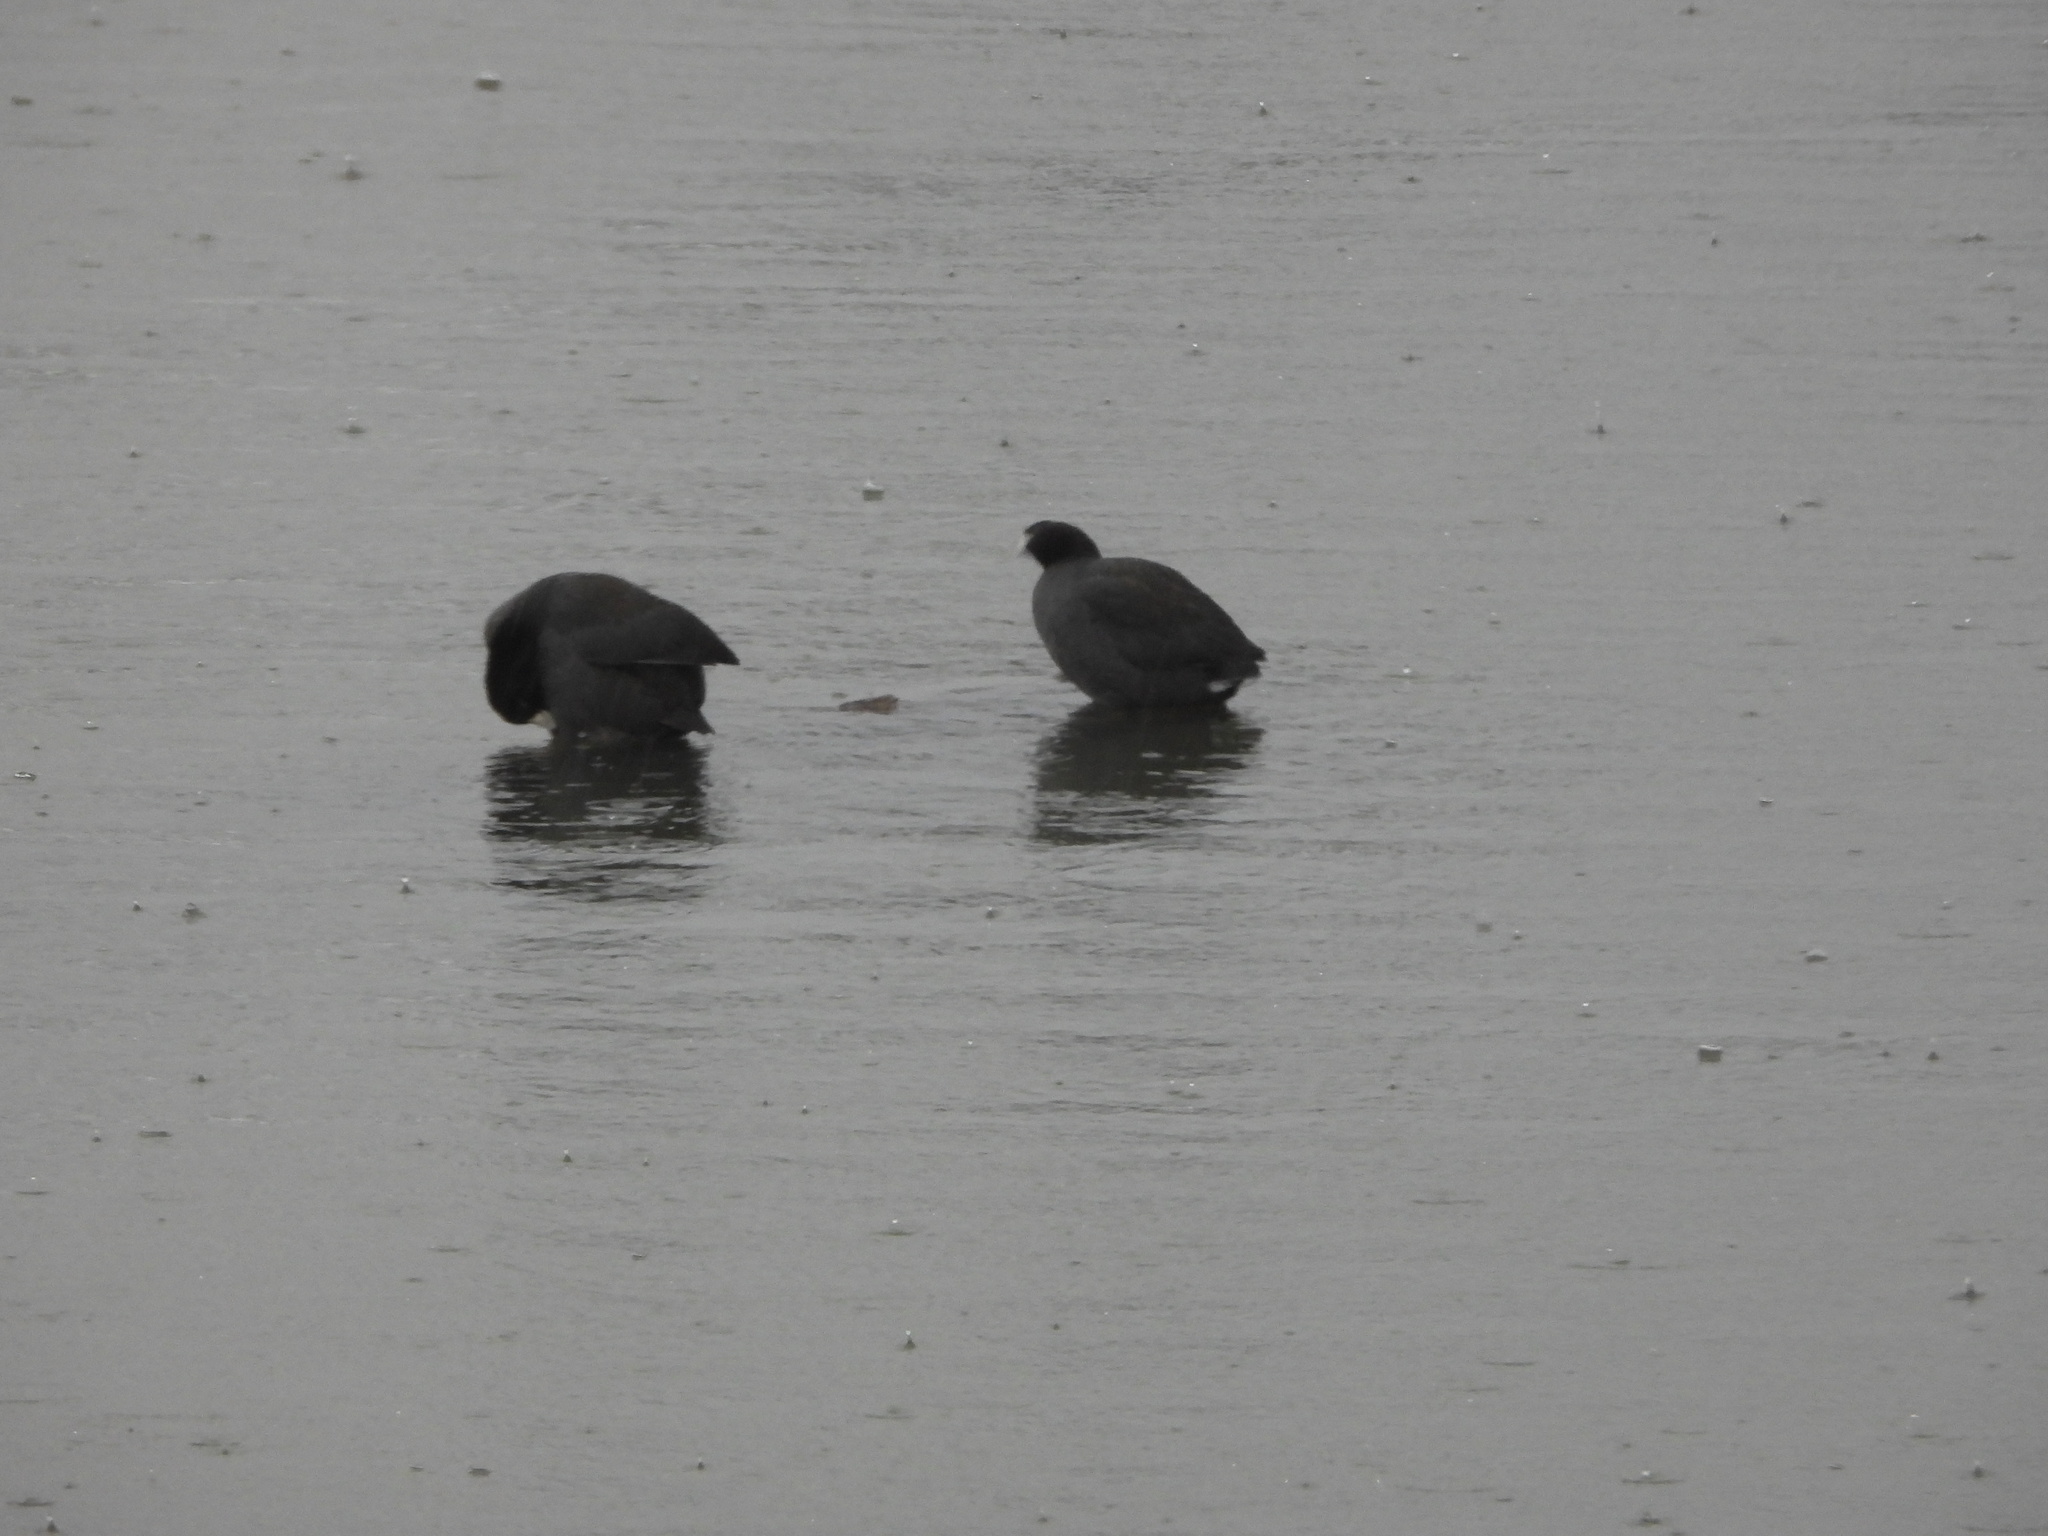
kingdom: Animalia
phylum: Chordata
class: Aves
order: Gruiformes
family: Rallidae
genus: Fulica
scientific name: Fulica americana
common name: American coot
